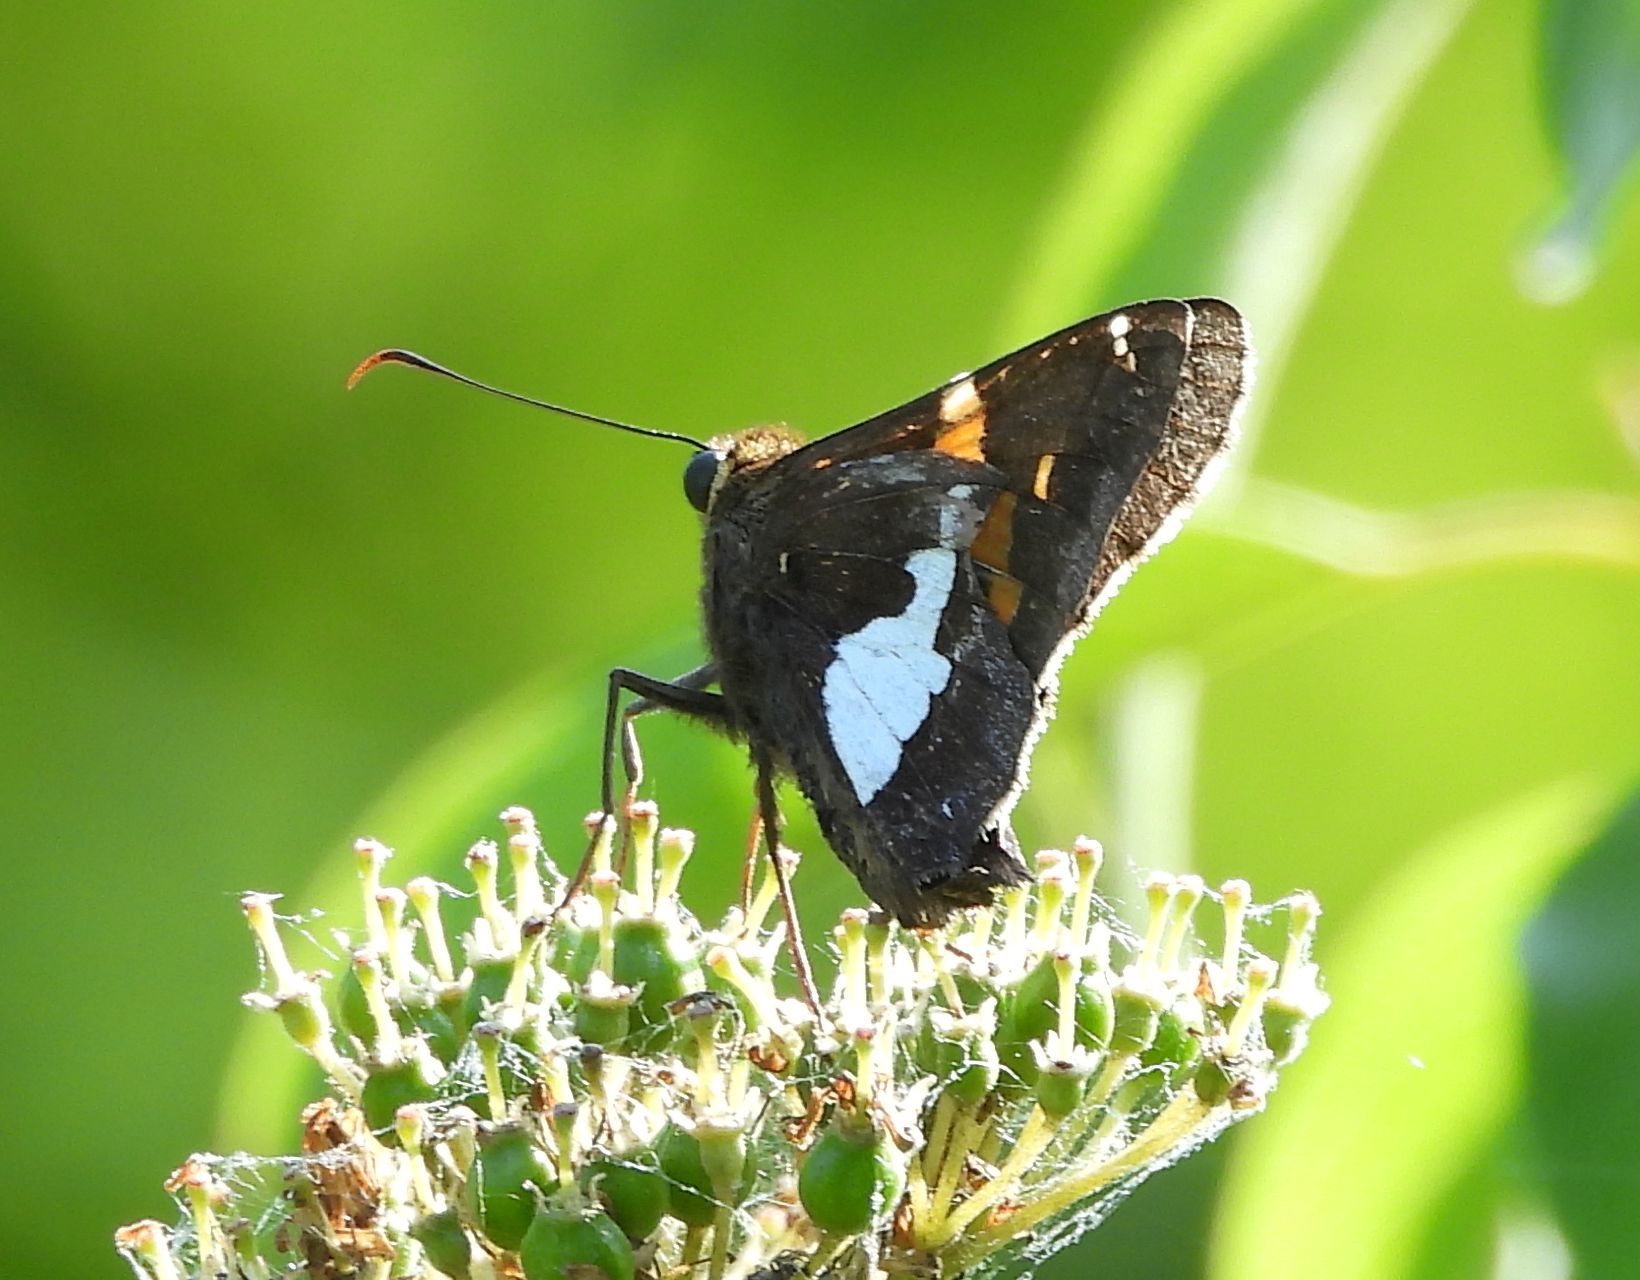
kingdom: Animalia
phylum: Arthropoda
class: Insecta
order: Lepidoptera
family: Hesperiidae
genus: Epargyreus
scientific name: Epargyreus clarus
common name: Silver-spotted skipper
